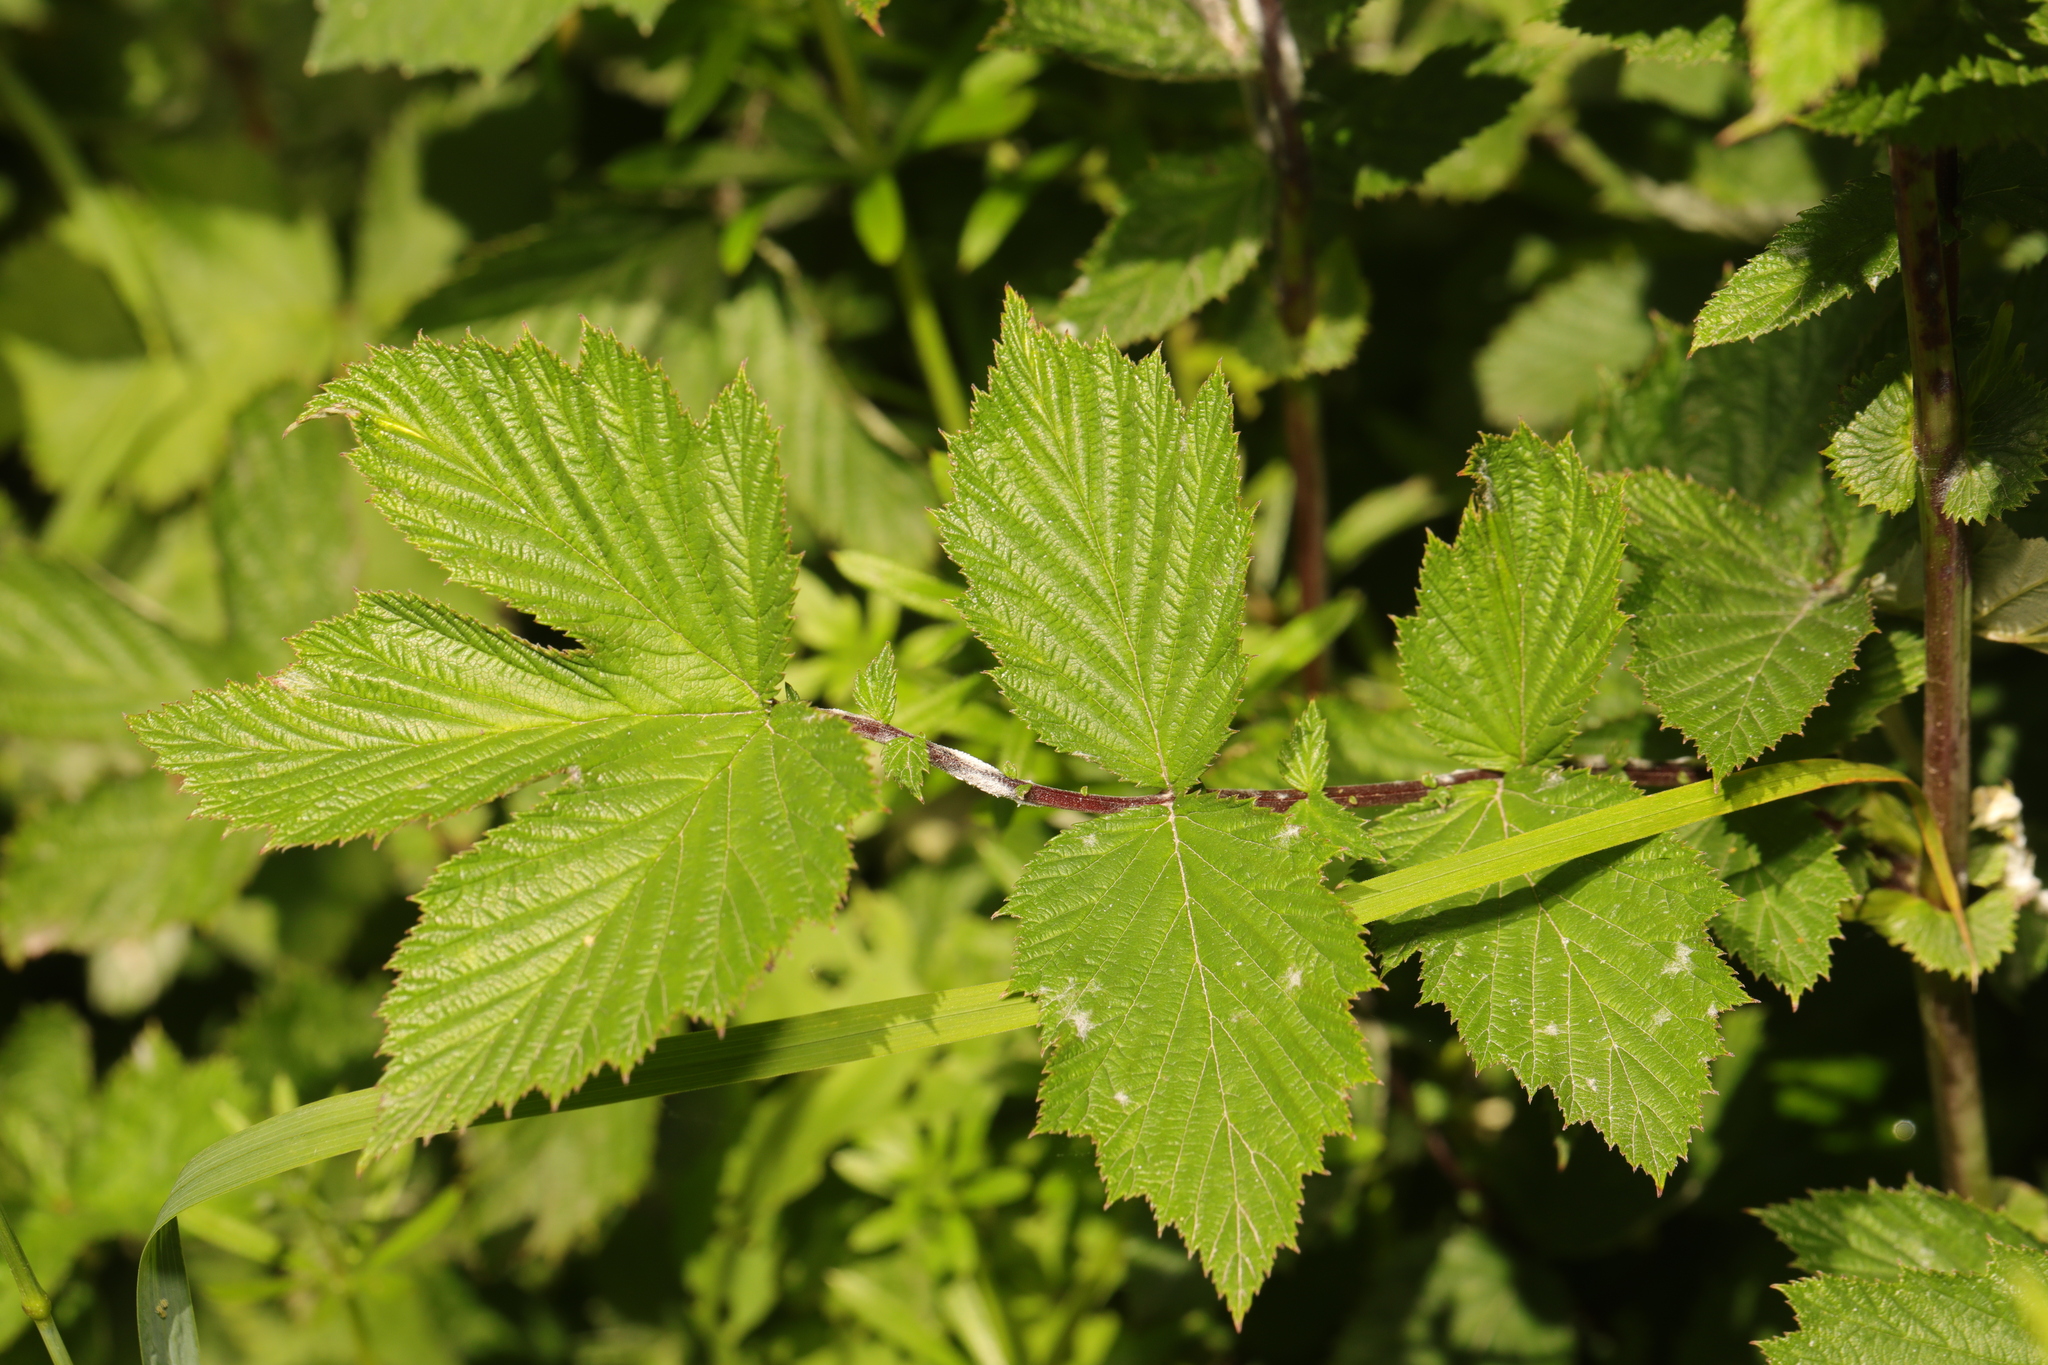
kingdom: Plantae
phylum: Tracheophyta
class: Magnoliopsida
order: Rosales
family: Rosaceae
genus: Filipendula
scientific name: Filipendula ulmaria
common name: Meadowsweet
